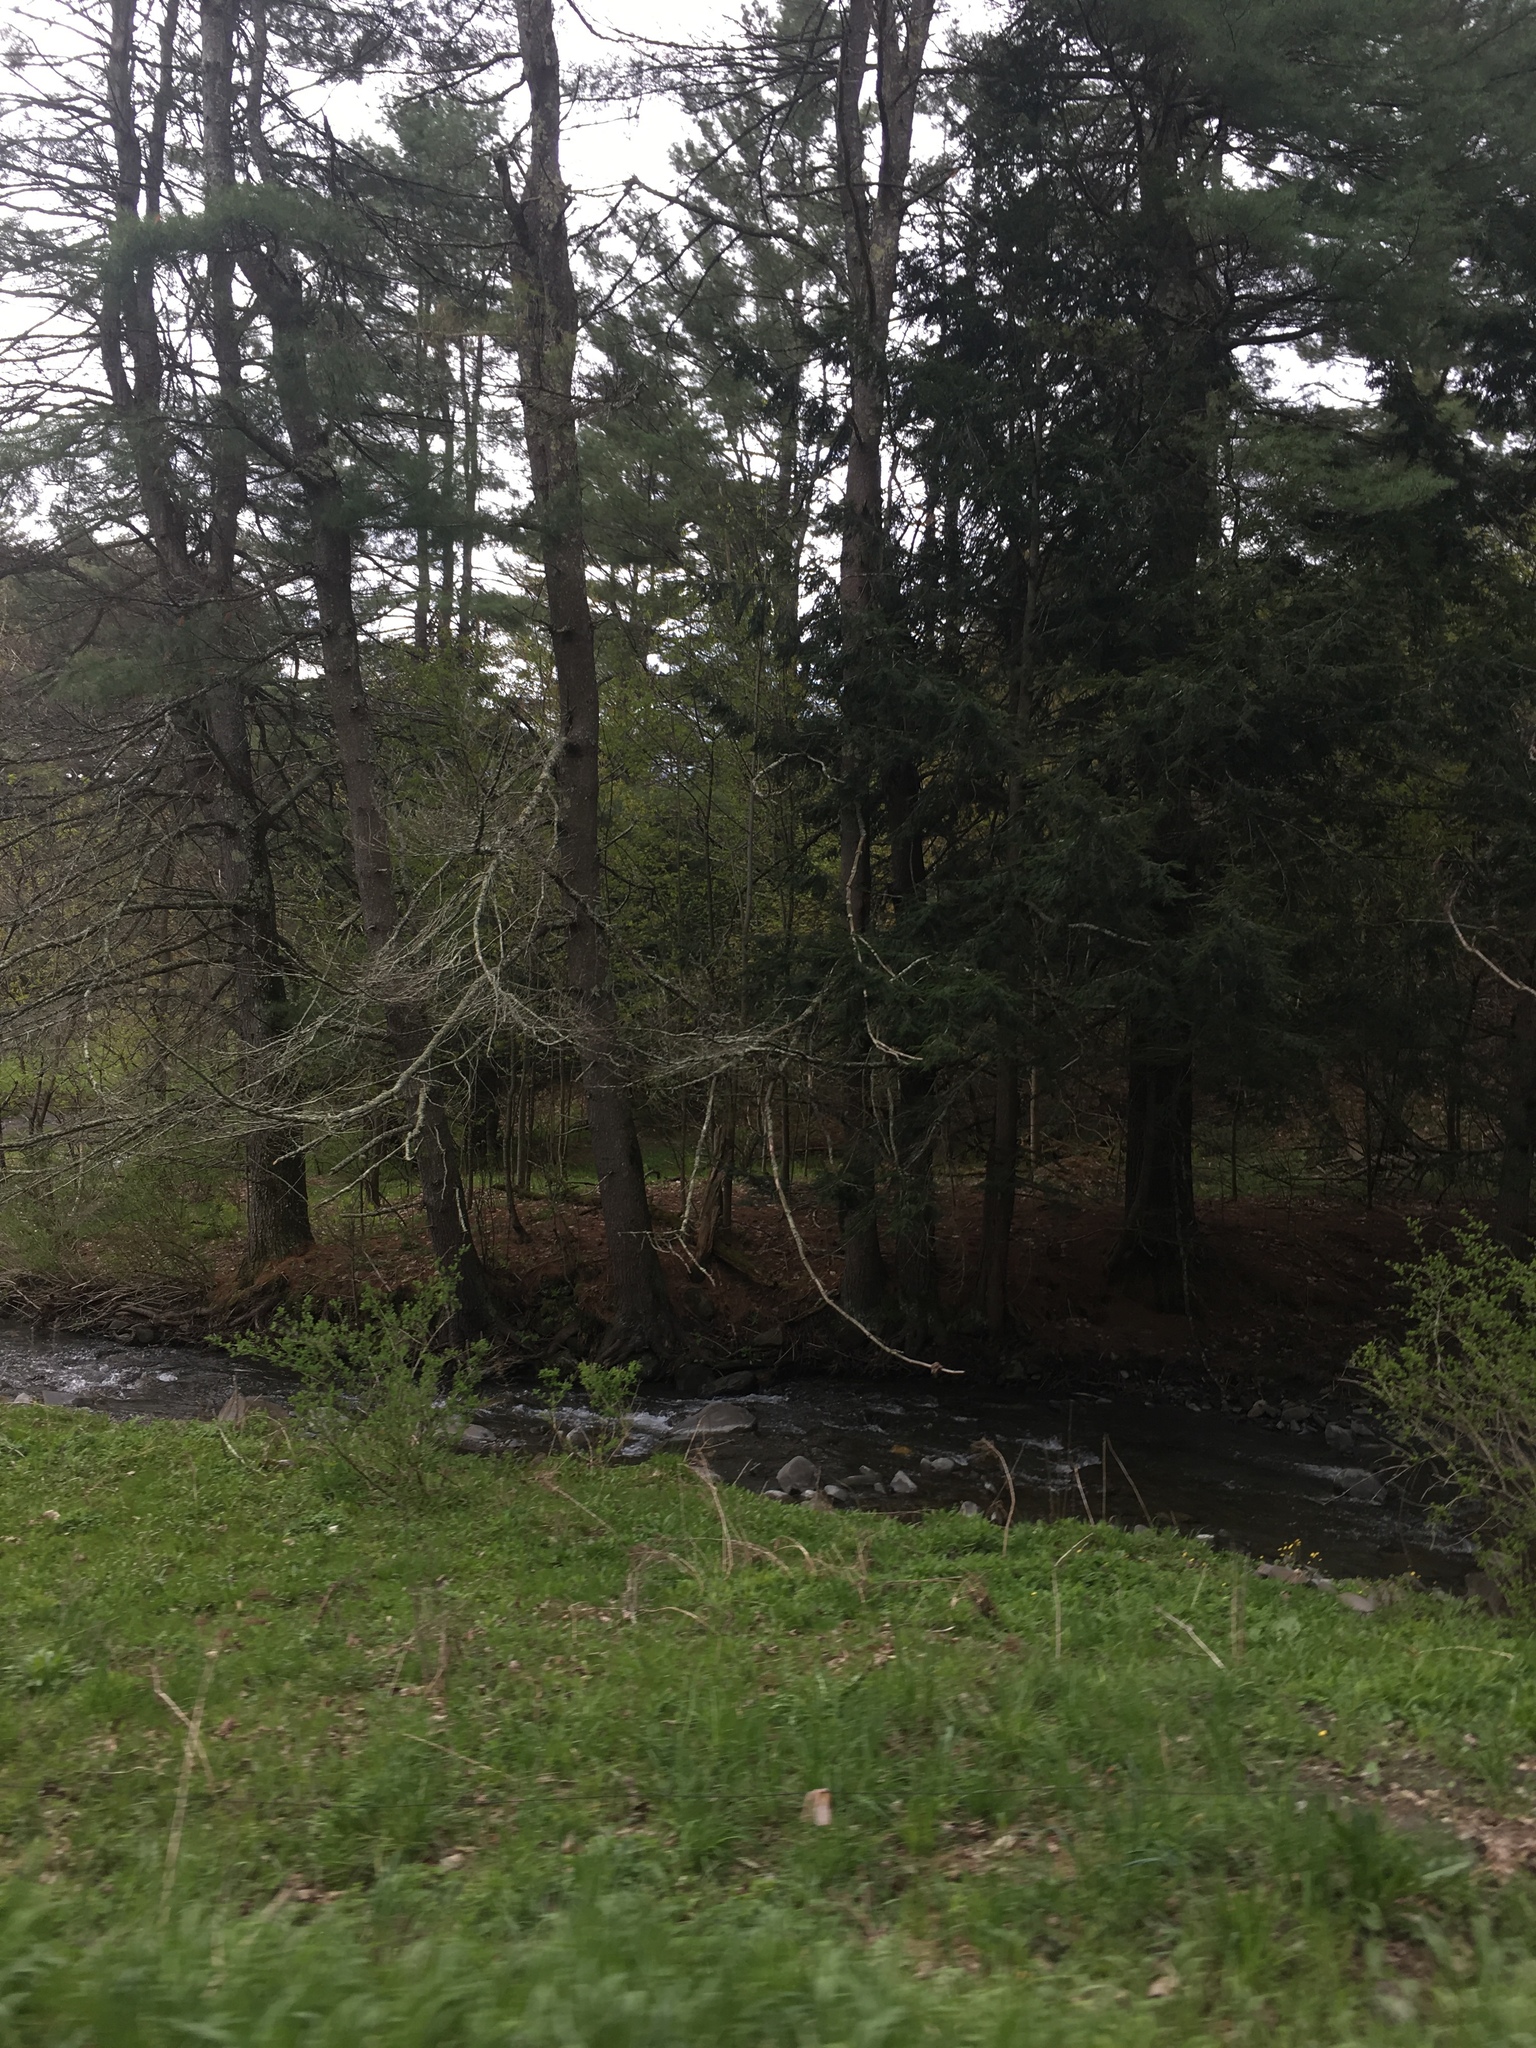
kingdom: Plantae
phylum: Tracheophyta
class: Pinopsida
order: Pinales
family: Pinaceae
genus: Tsuga
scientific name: Tsuga canadensis
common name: Eastern hemlock
